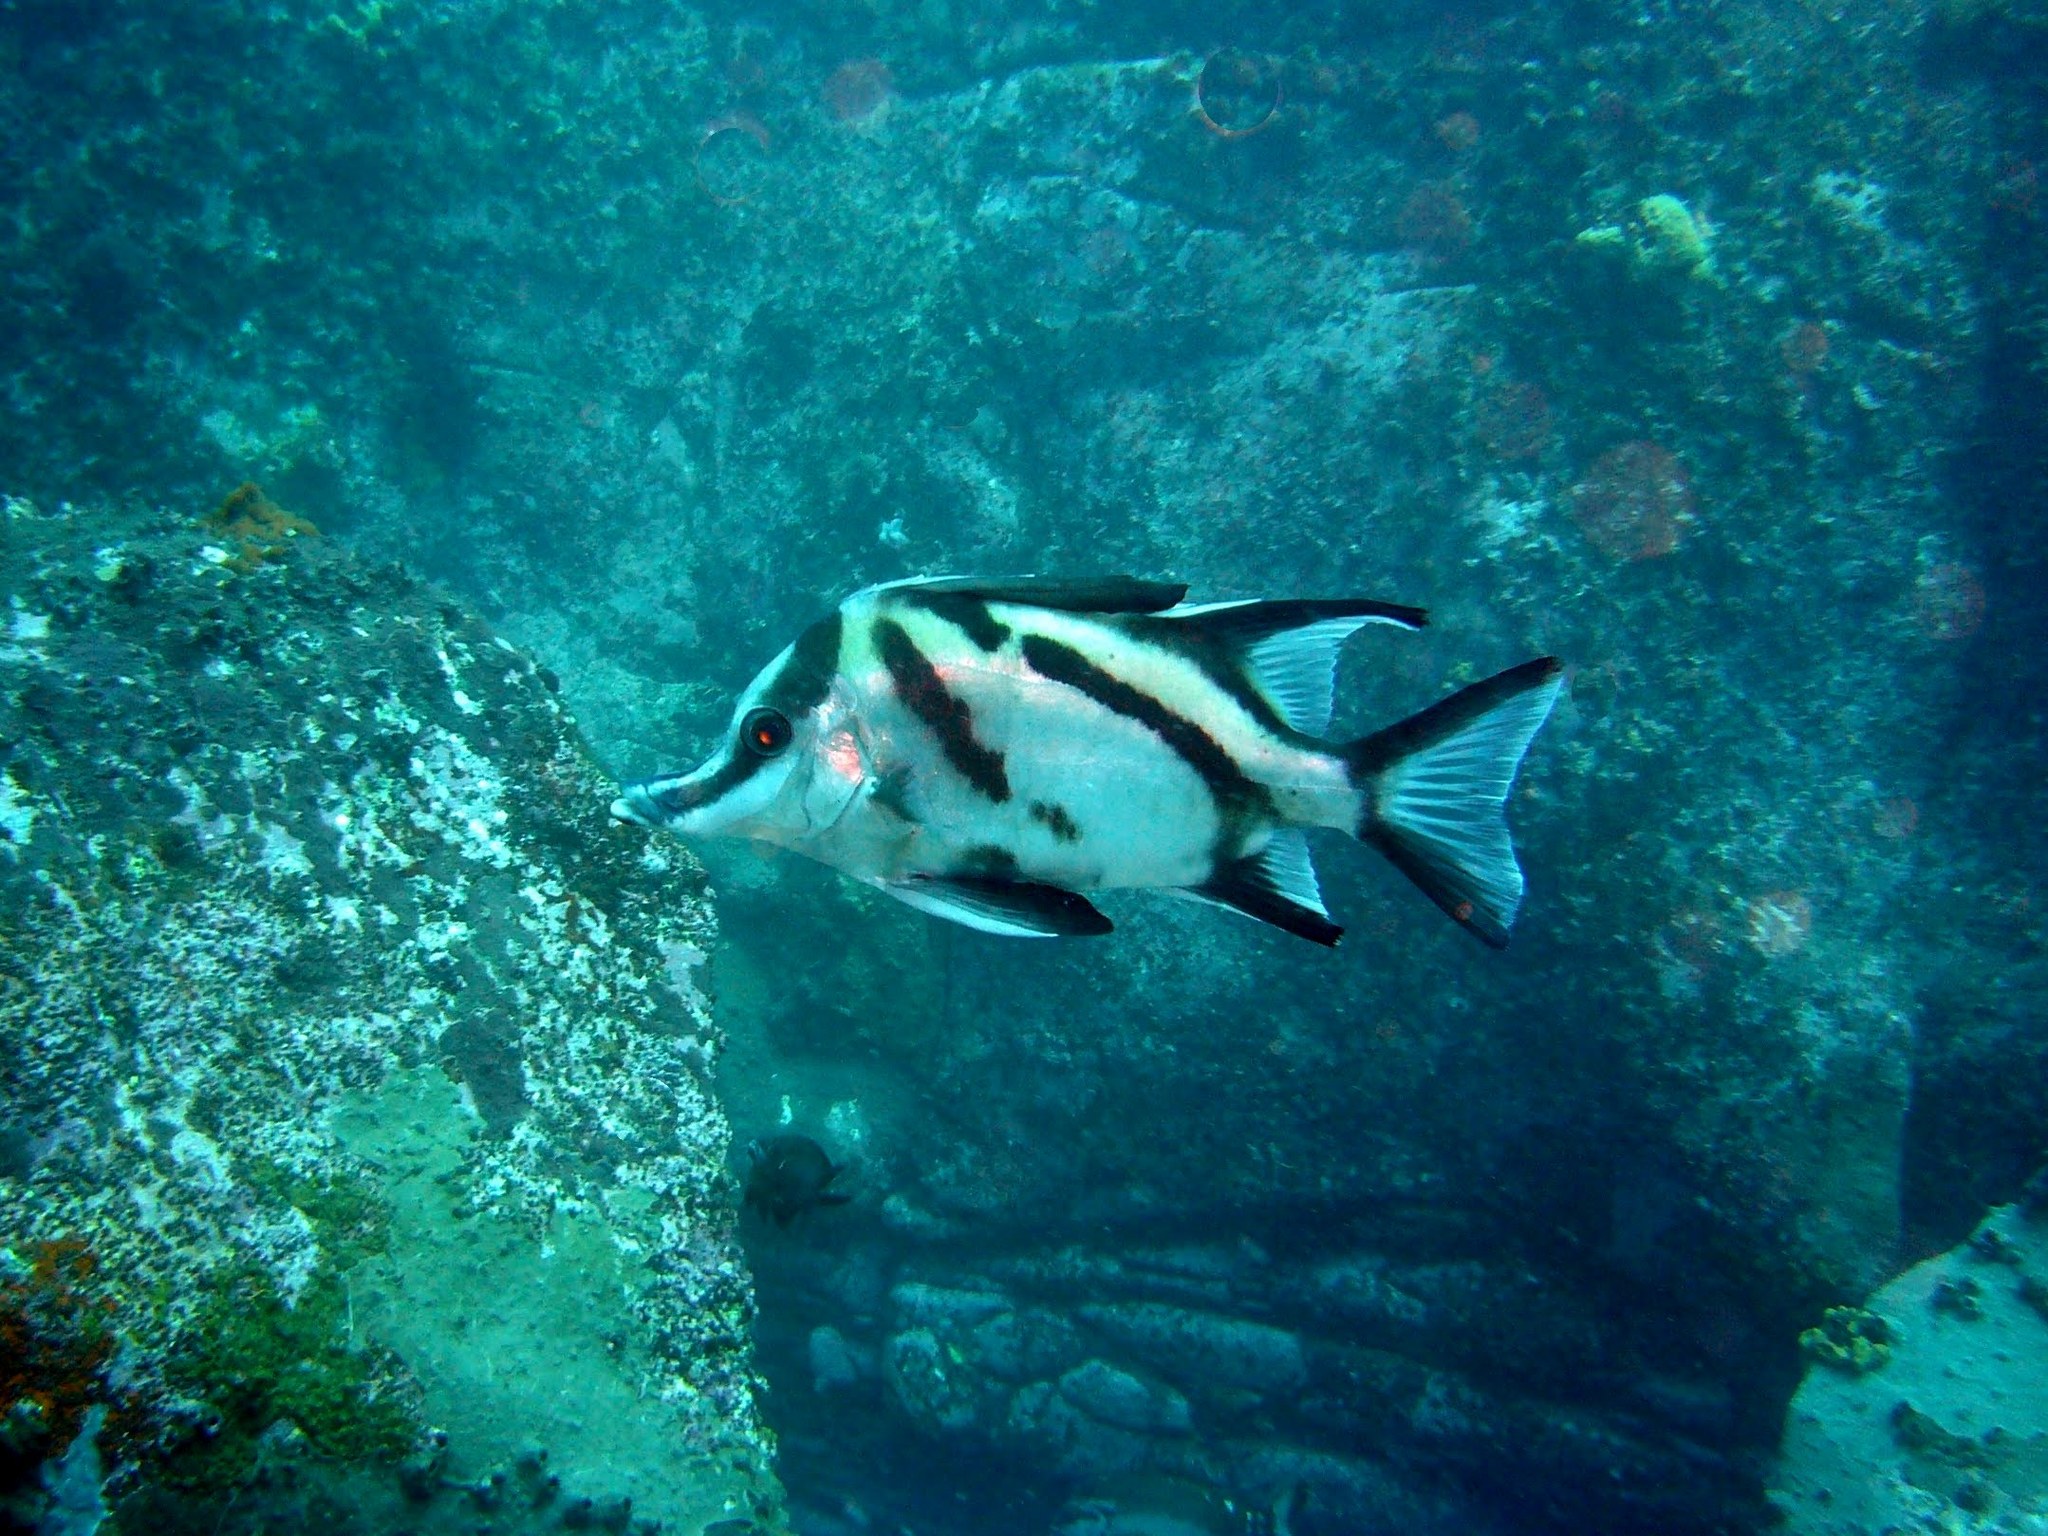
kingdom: Animalia
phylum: Chordata
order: Perciformes
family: Pentacerotidae
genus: Pentaceropsis
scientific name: Pentaceropsis recurvirostris
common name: Longsnout boarfish
